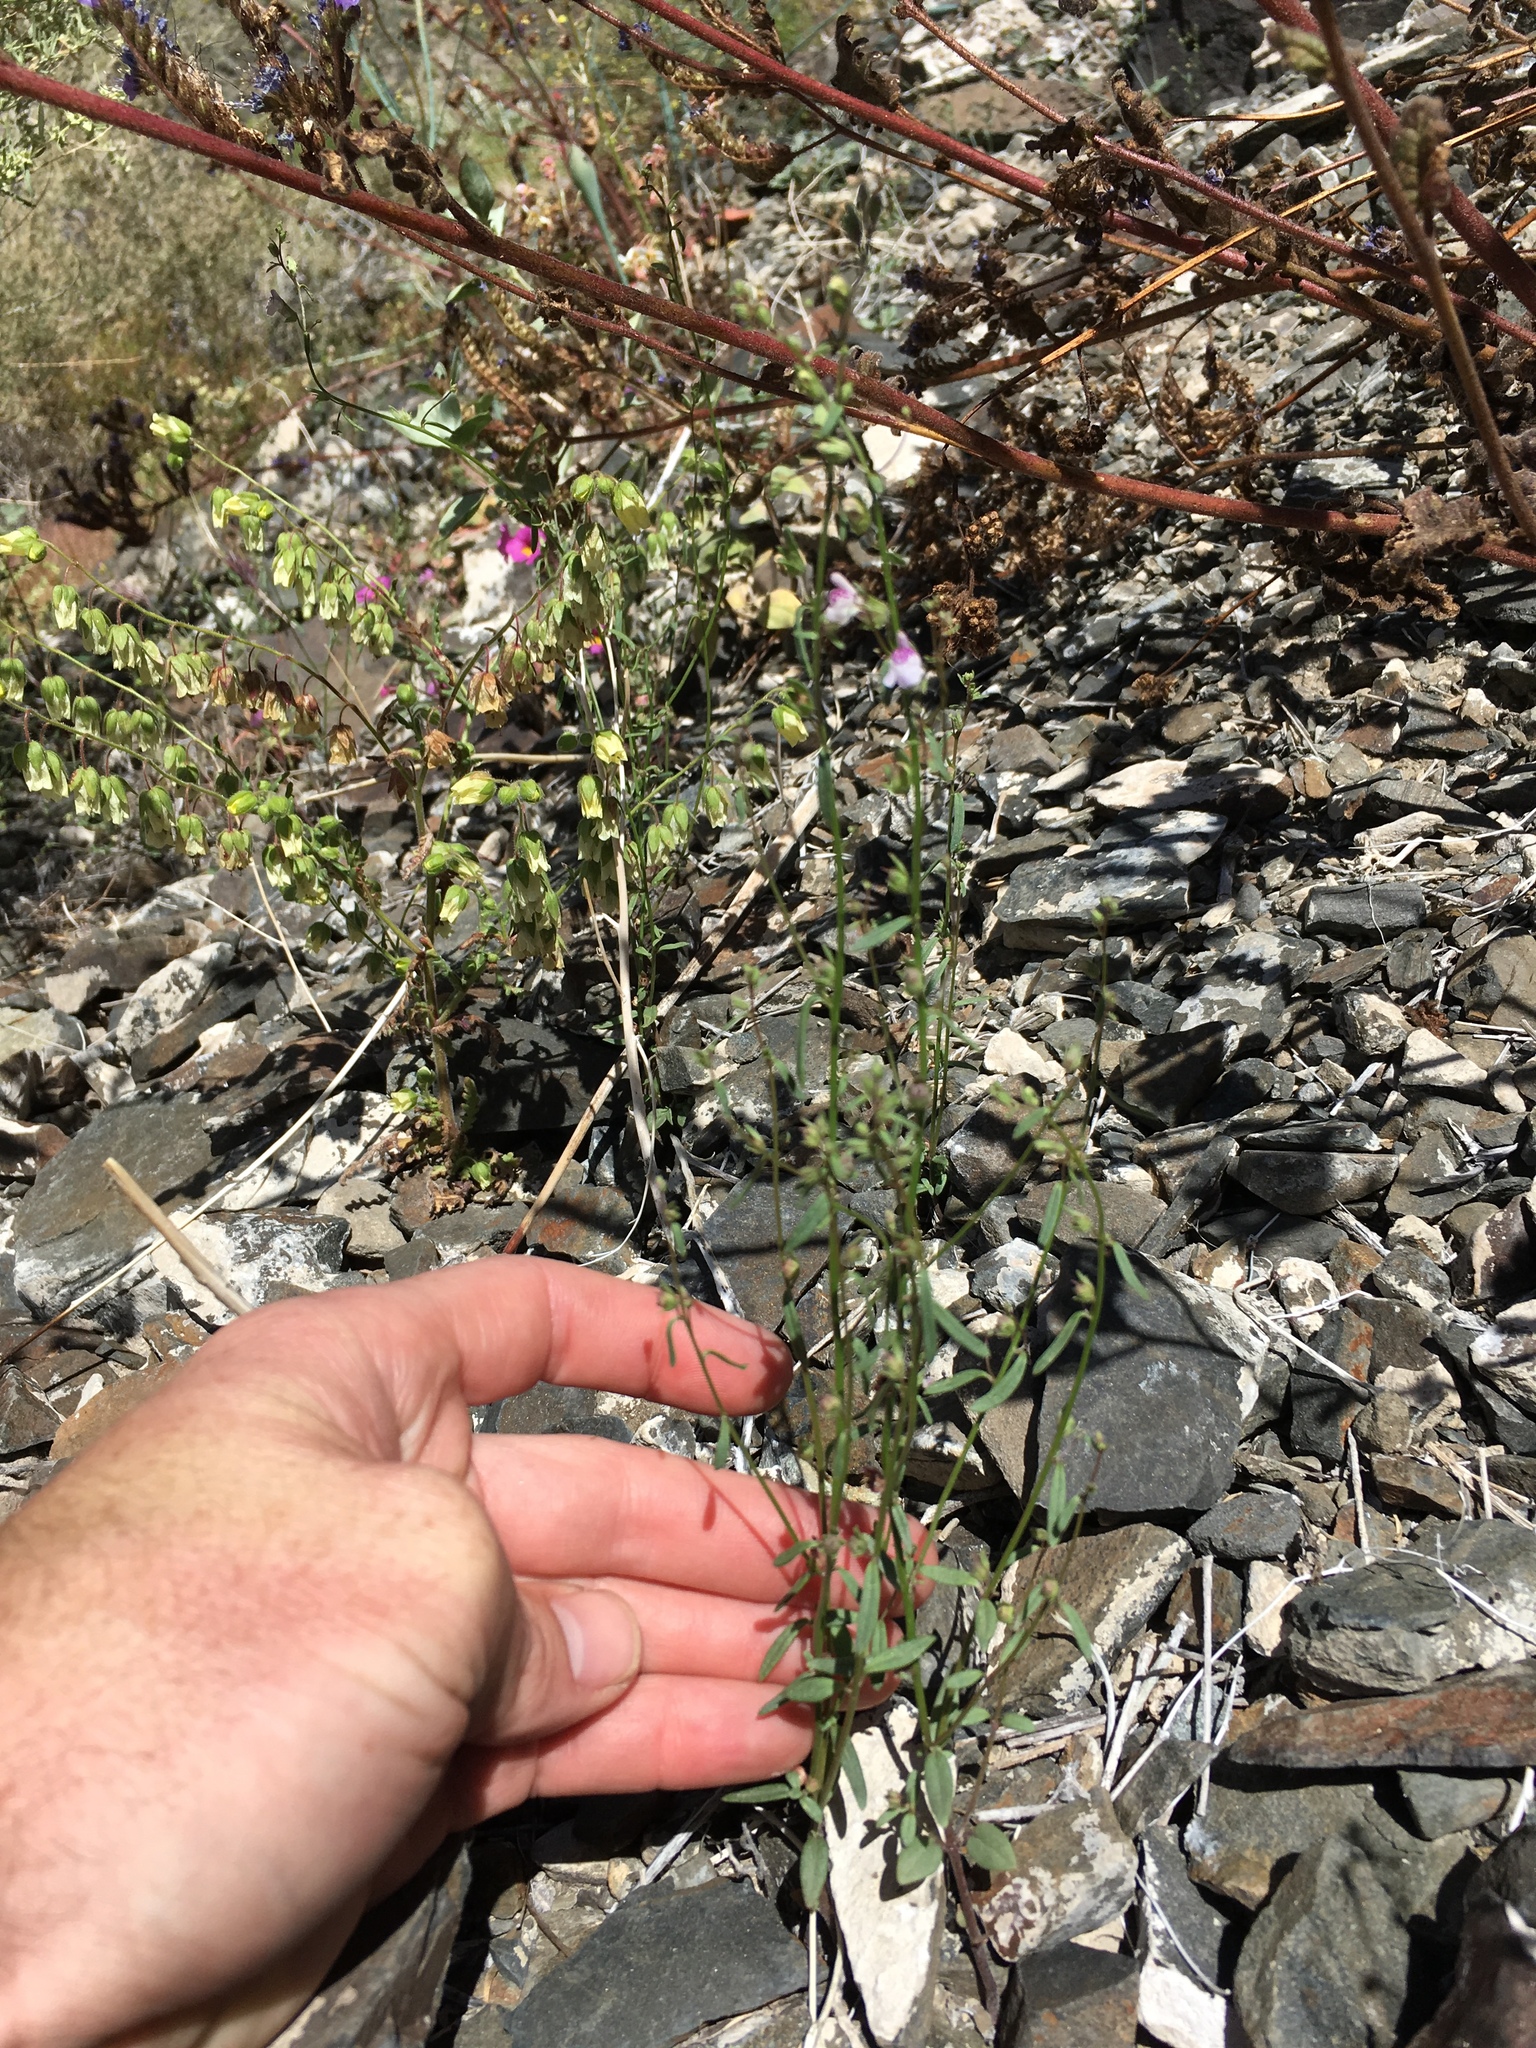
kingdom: Plantae
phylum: Tracheophyta
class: Magnoliopsida
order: Lamiales
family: Plantaginaceae
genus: Sairocarpus
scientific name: Sairocarpus kingii
